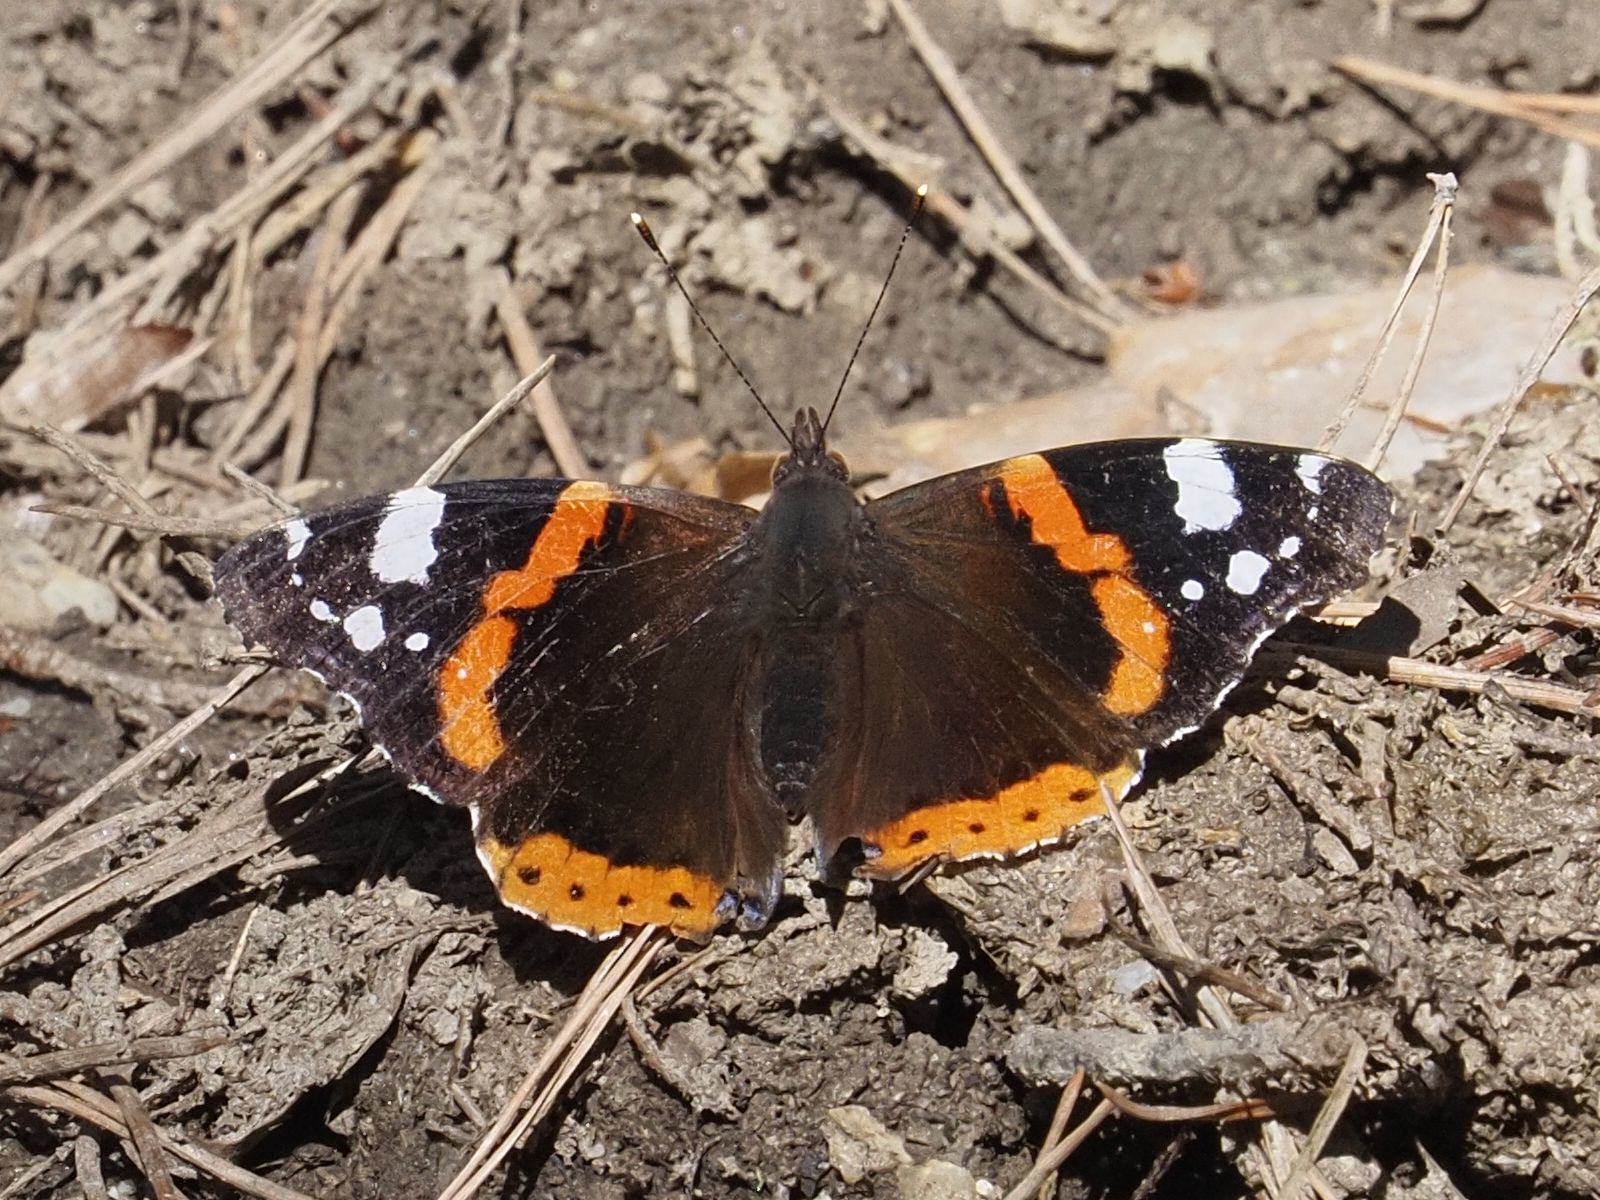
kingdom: Animalia
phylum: Arthropoda
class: Insecta
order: Lepidoptera
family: Nymphalidae
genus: Vanessa
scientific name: Vanessa atalanta
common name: Red admiral
